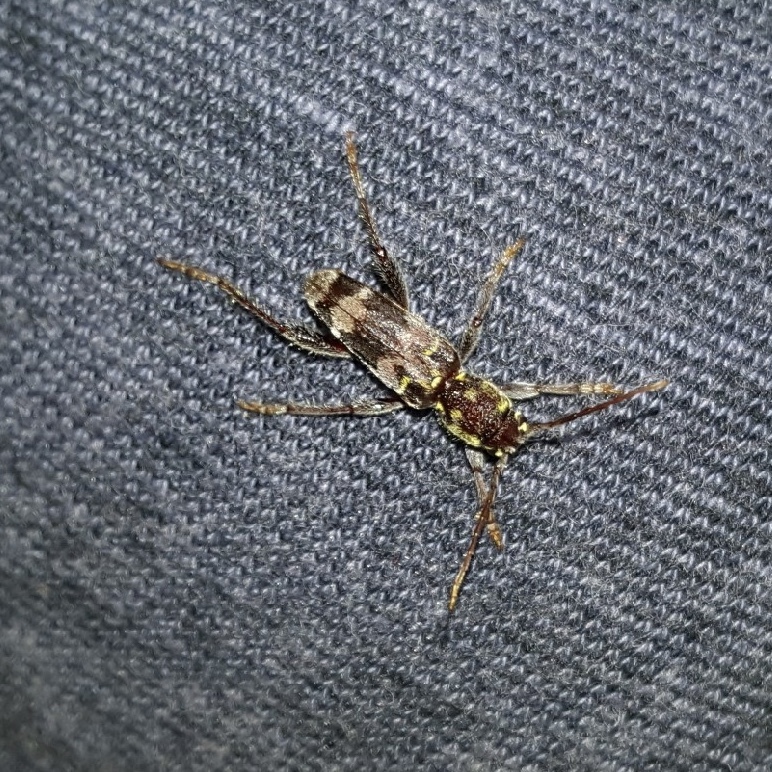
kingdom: Animalia
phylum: Arthropoda
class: Insecta
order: Coleoptera
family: Cerambycidae
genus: Xylotrechus
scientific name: Xylotrechus colonus
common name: Long-horned beetle
